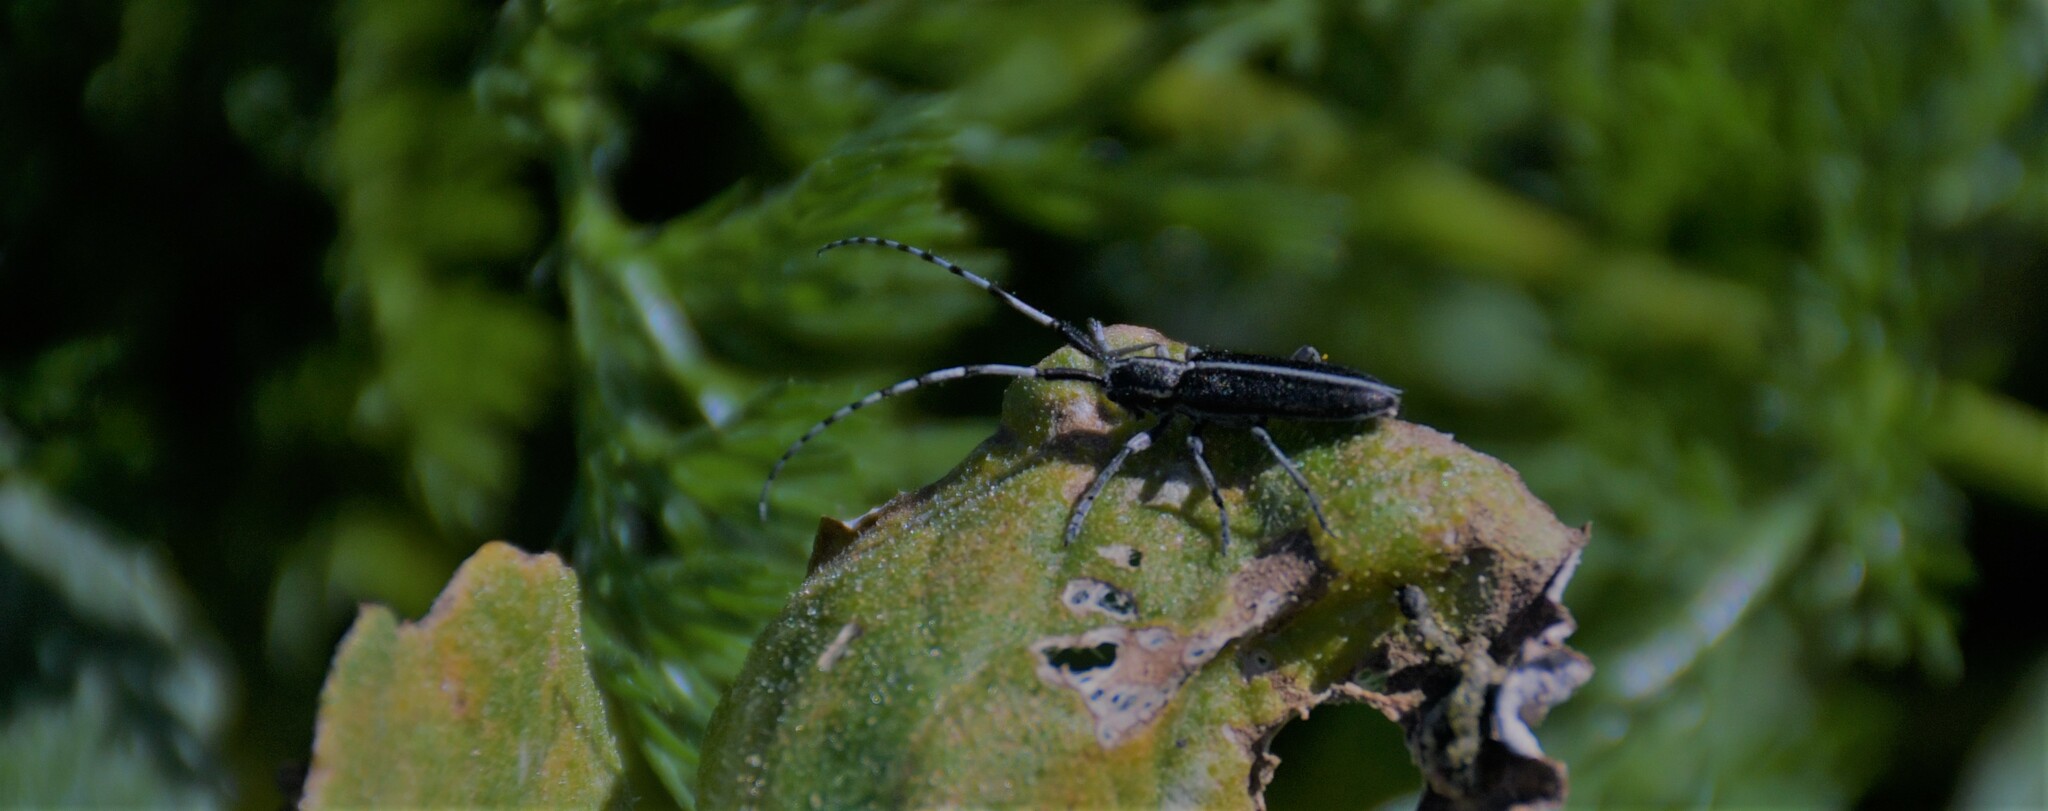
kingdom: Animalia
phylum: Arthropoda
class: Insecta
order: Coleoptera
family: Cerambycidae
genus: Agapanthia
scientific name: Agapanthia cardui
